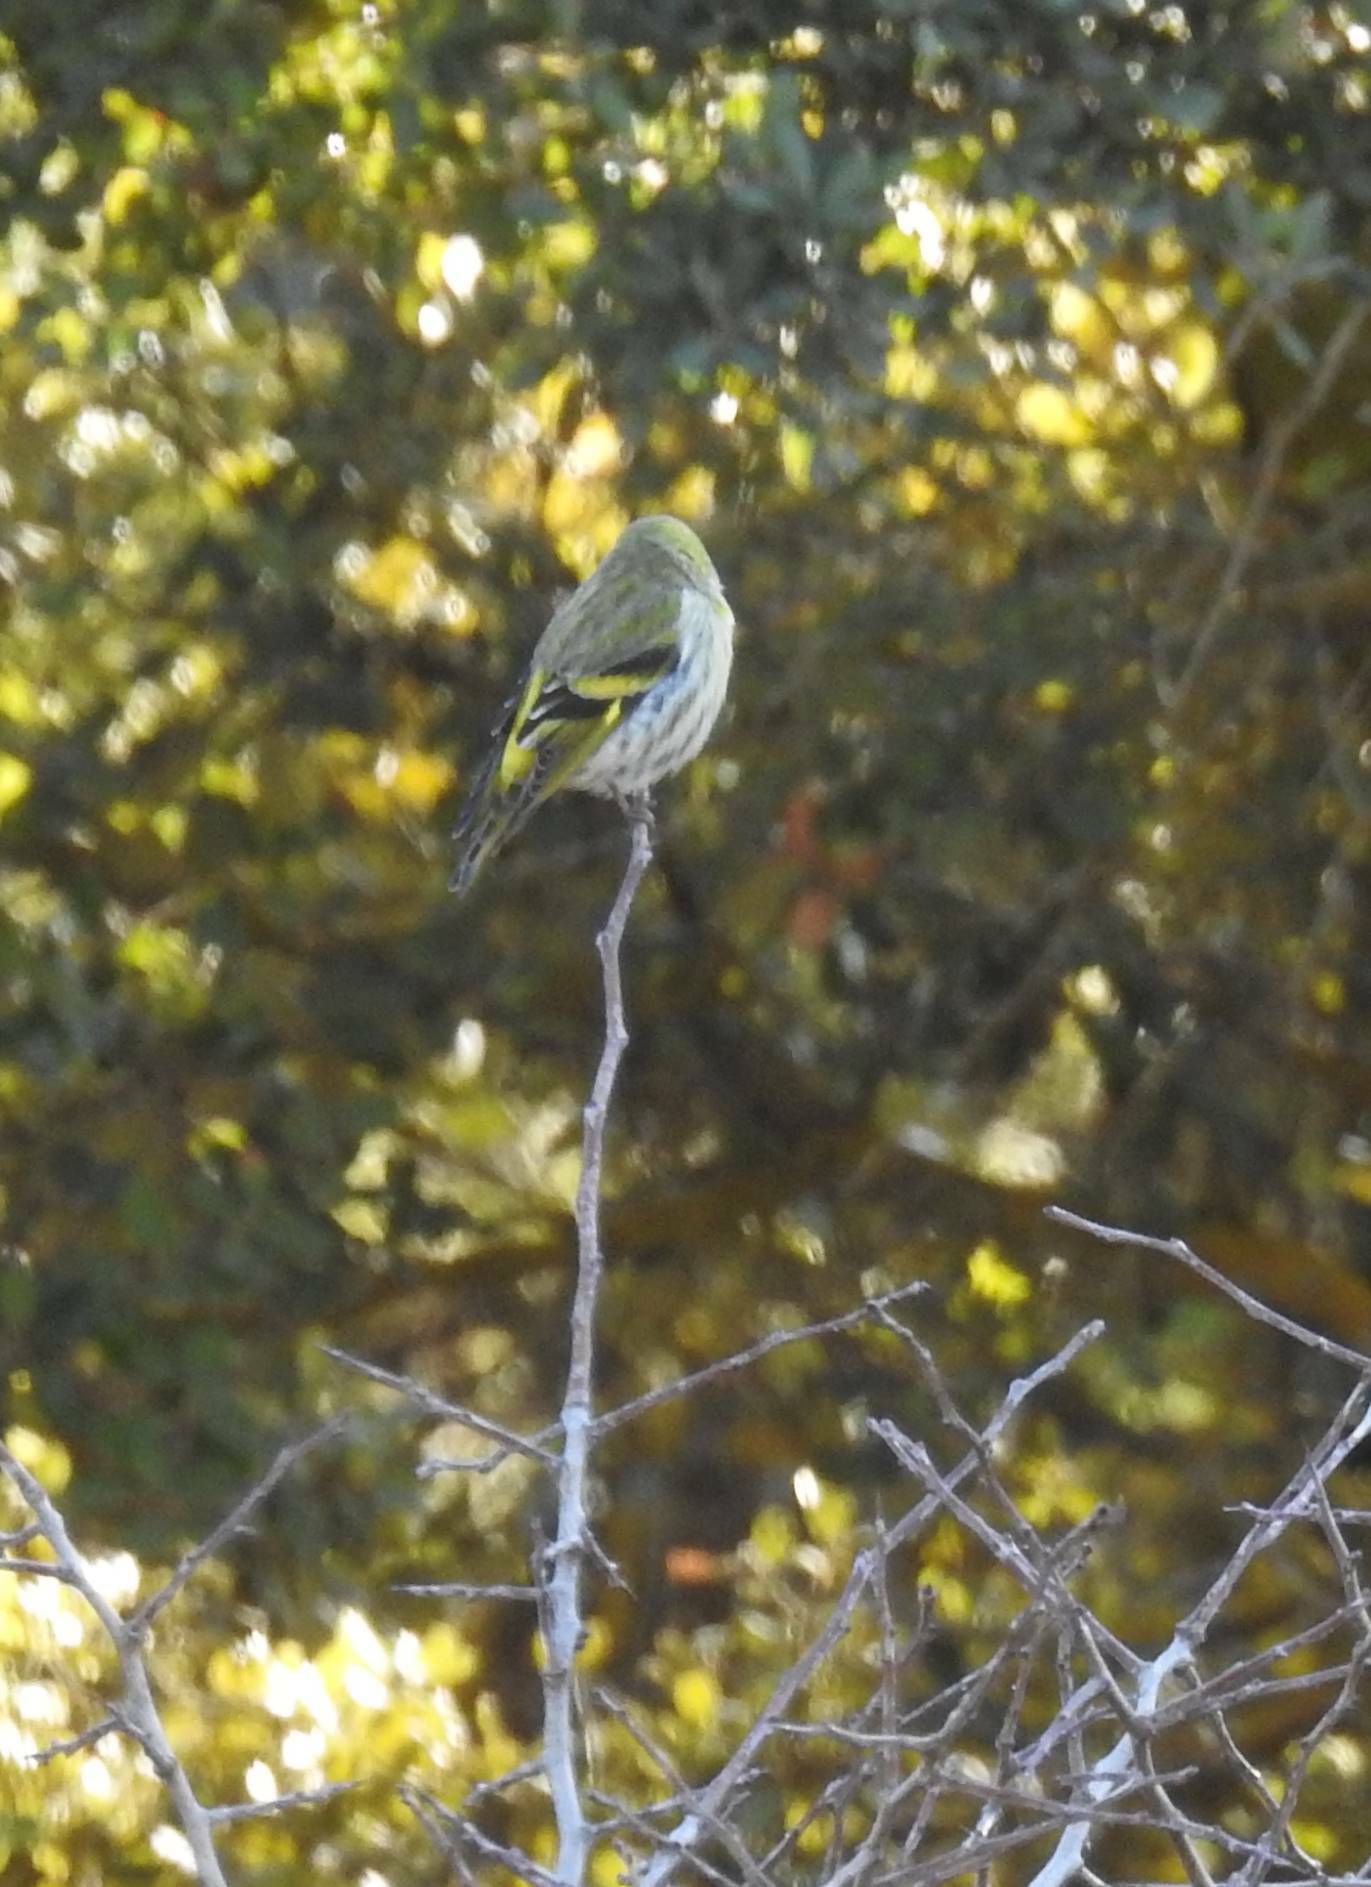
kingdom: Animalia
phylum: Chordata
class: Aves
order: Passeriformes
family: Fringillidae
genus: Spinus
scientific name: Spinus spinus
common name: Eurasian siskin
